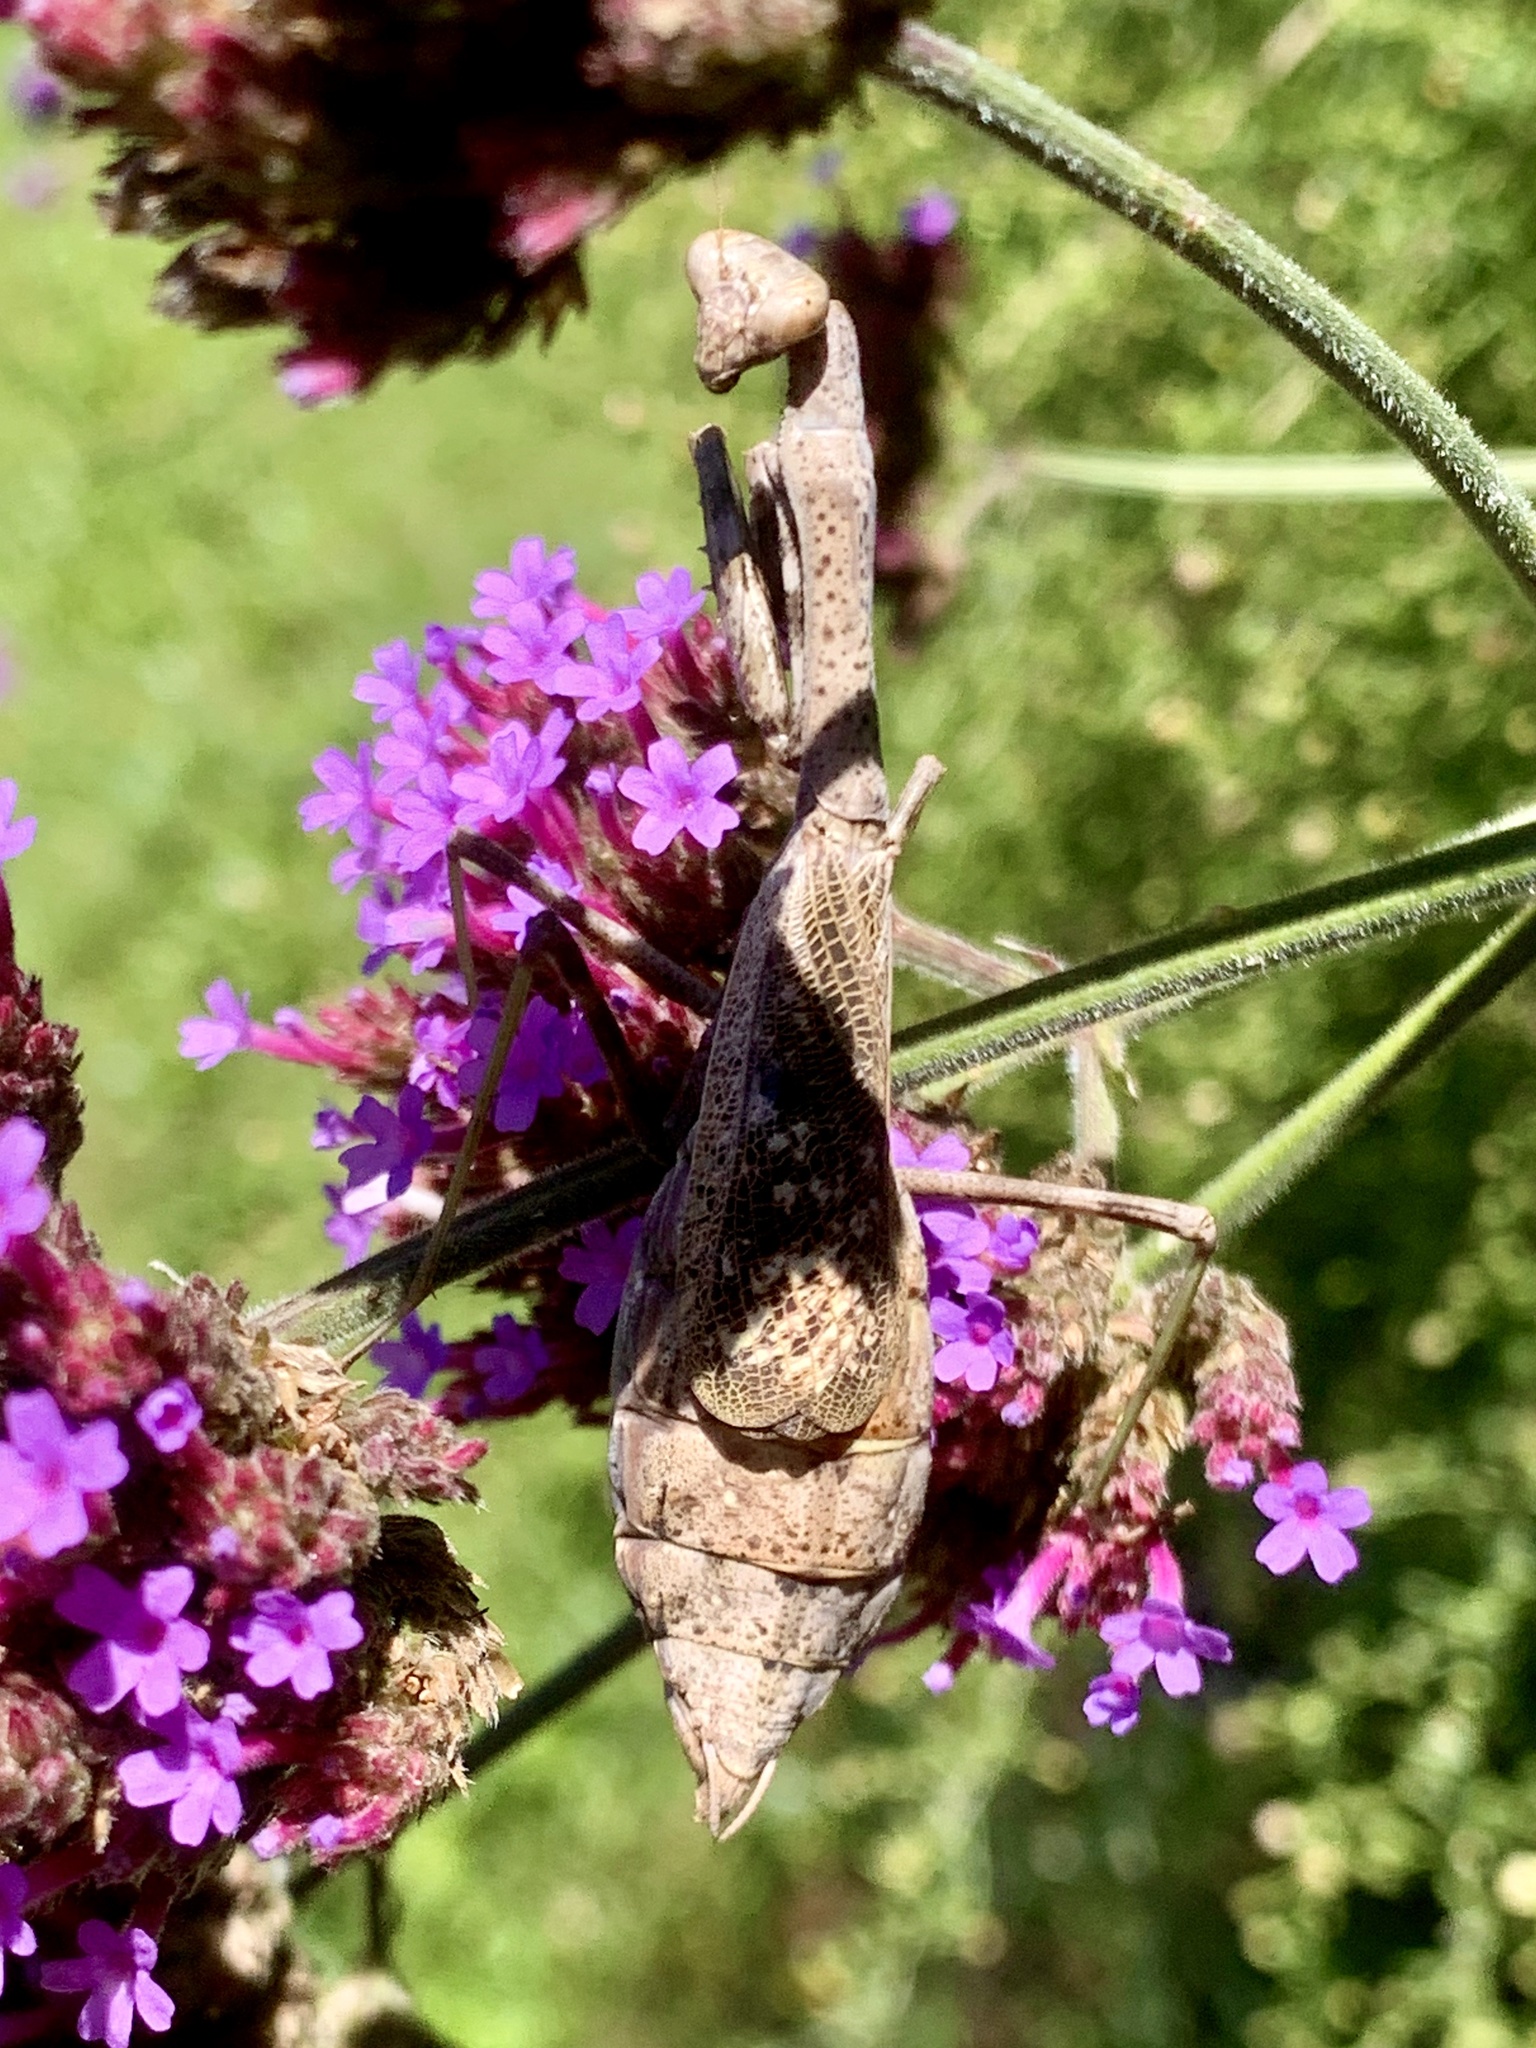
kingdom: Animalia
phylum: Arthropoda
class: Insecta
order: Mantodea
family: Mantidae
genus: Stagmomantis
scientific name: Stagmomantis carolina
